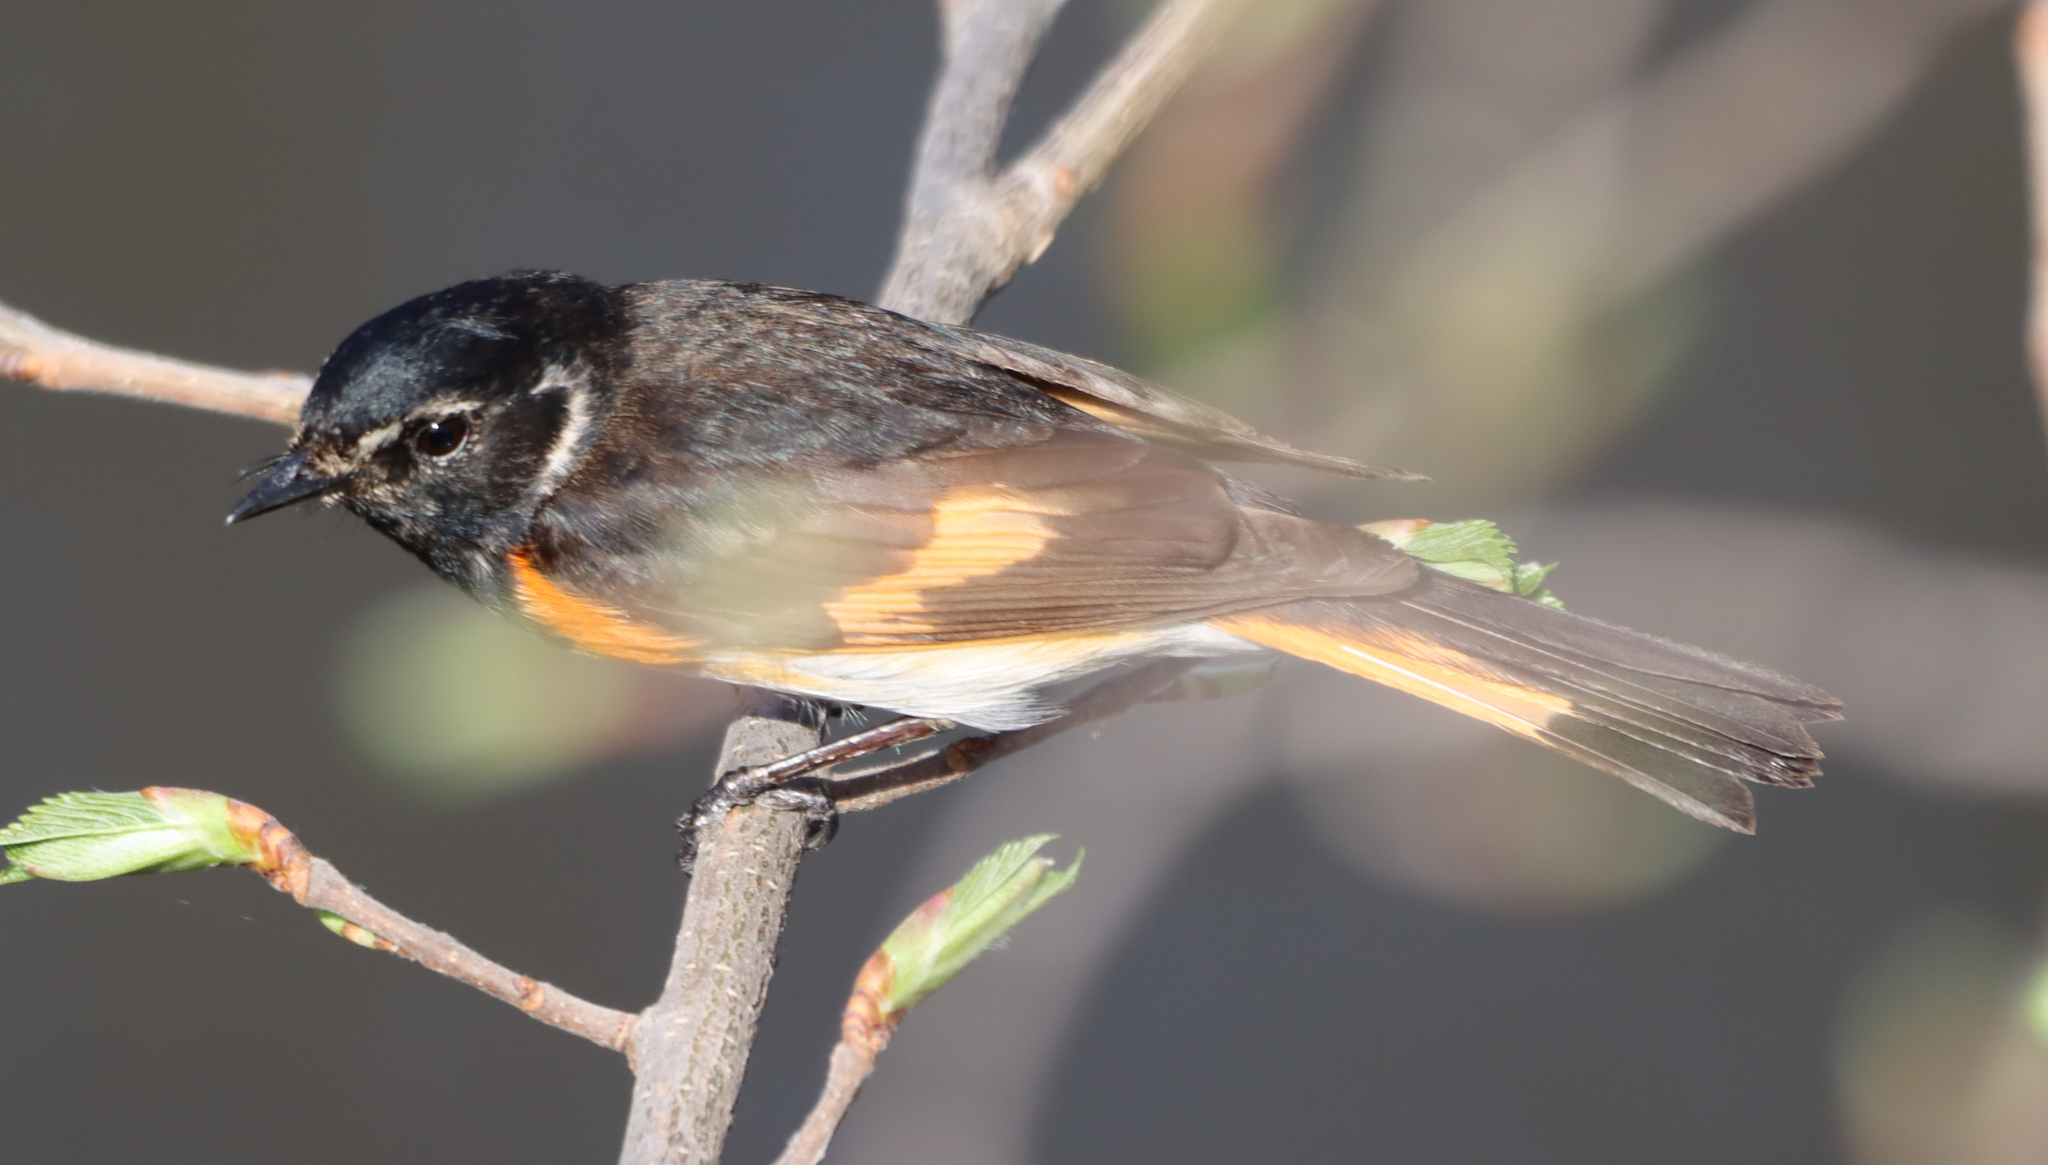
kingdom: Animalia
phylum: Chordata
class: Aves
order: Passeriformes
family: Parulidae
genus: Setophaga
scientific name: Setophaga ruticilla
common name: American redstart
